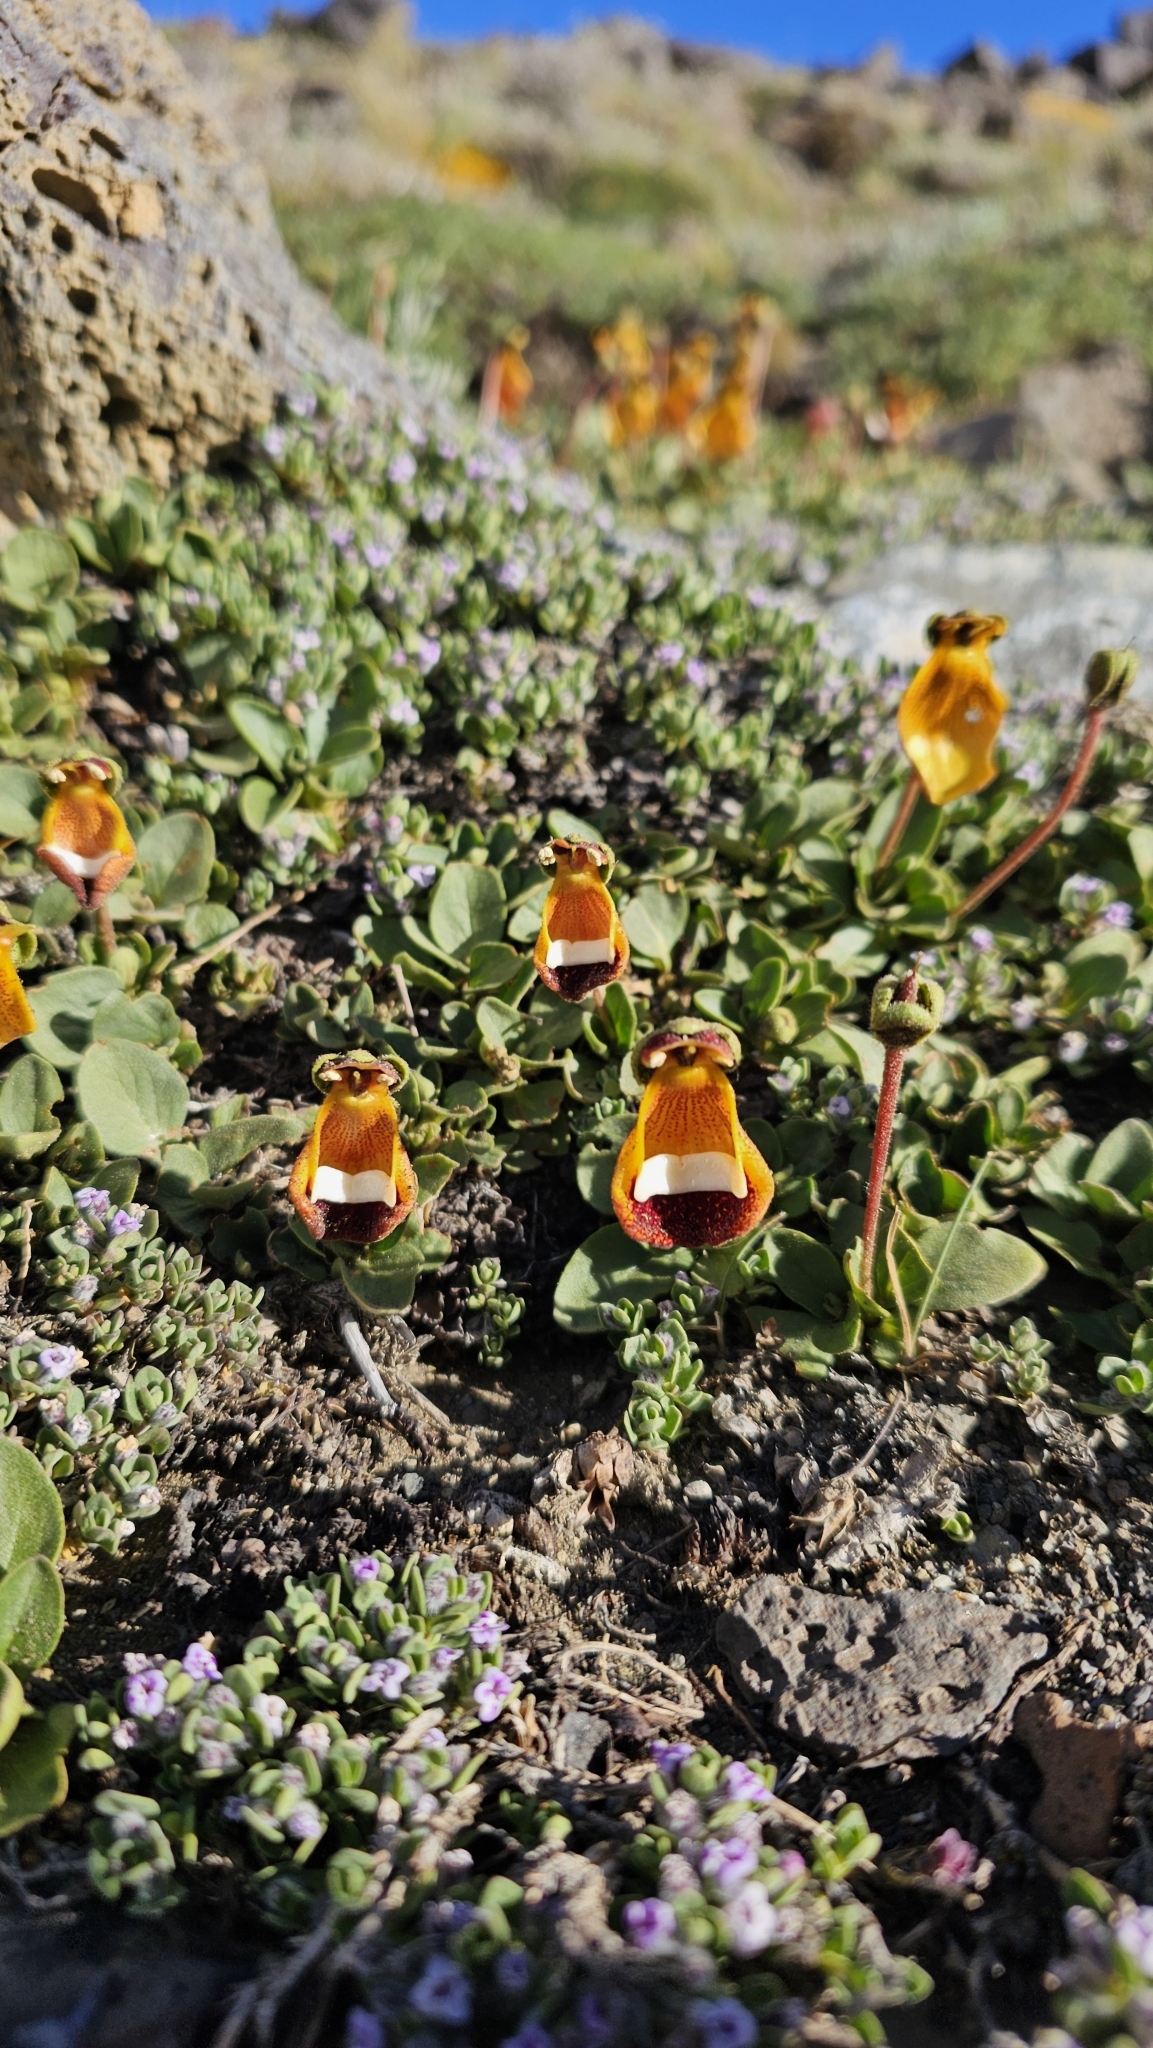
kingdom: Plantae
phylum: Tracheophyta
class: Magnoliopsida
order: Lamiales
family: Calceolariaceae
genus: Calceolaria
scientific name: Calceolaria uniflora
